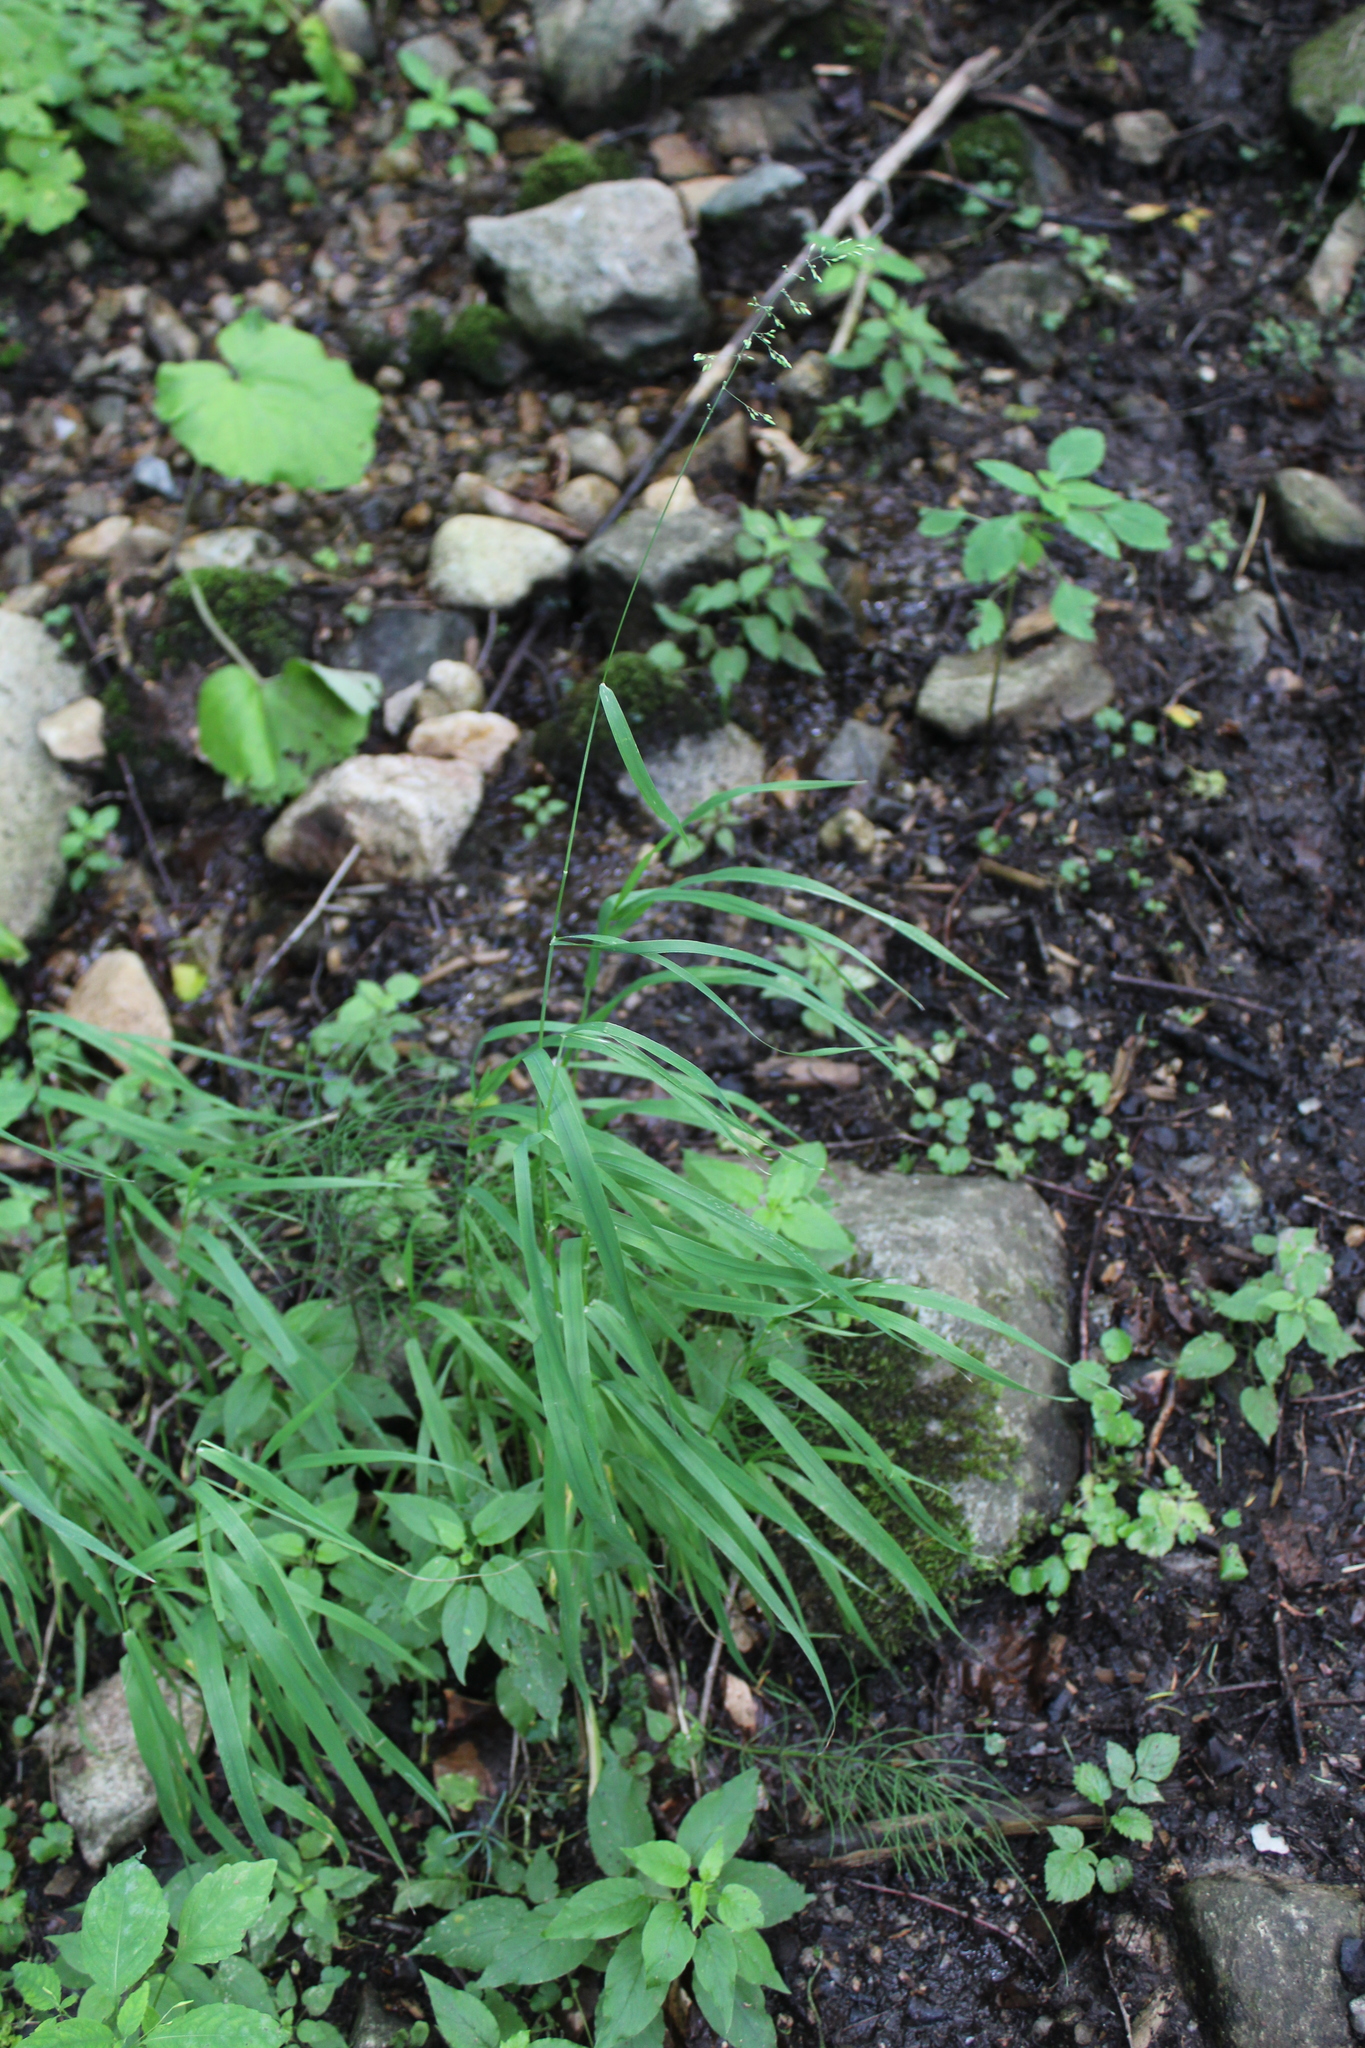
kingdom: Plantae
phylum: Tracheophyta
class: Liliopsida
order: Poales
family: Poaceae
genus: Milium
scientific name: Milium effusum
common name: Wood millet
